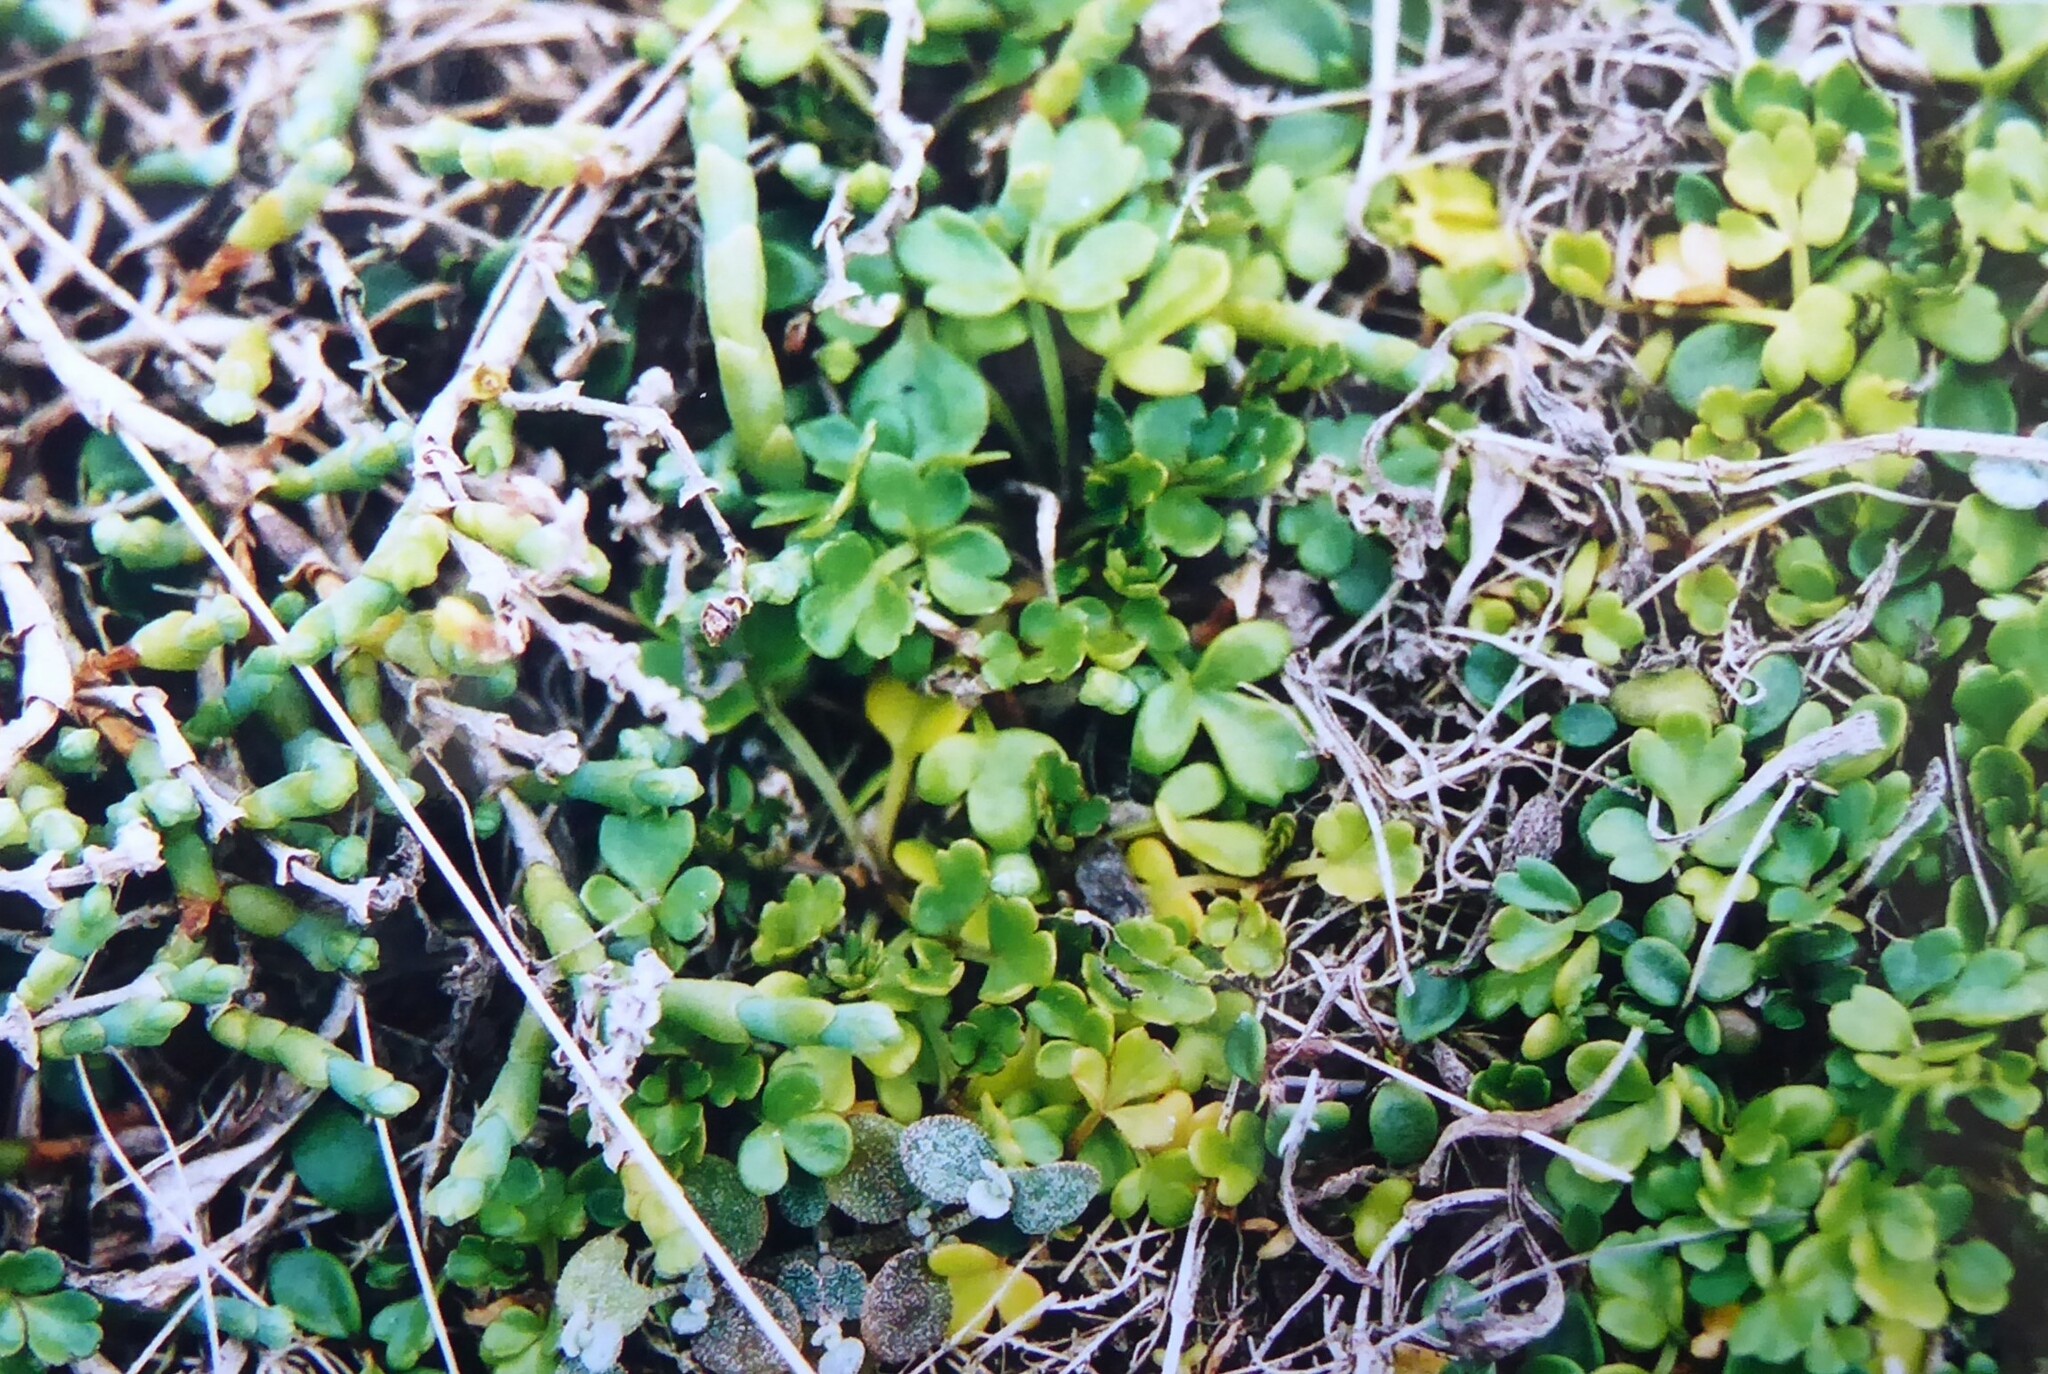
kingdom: Plantae
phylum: Tracheophyta
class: Magnoliopsida
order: Apiales
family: Apiaceae
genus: Apium
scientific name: Apium prostratum
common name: Prostrate marshwort
